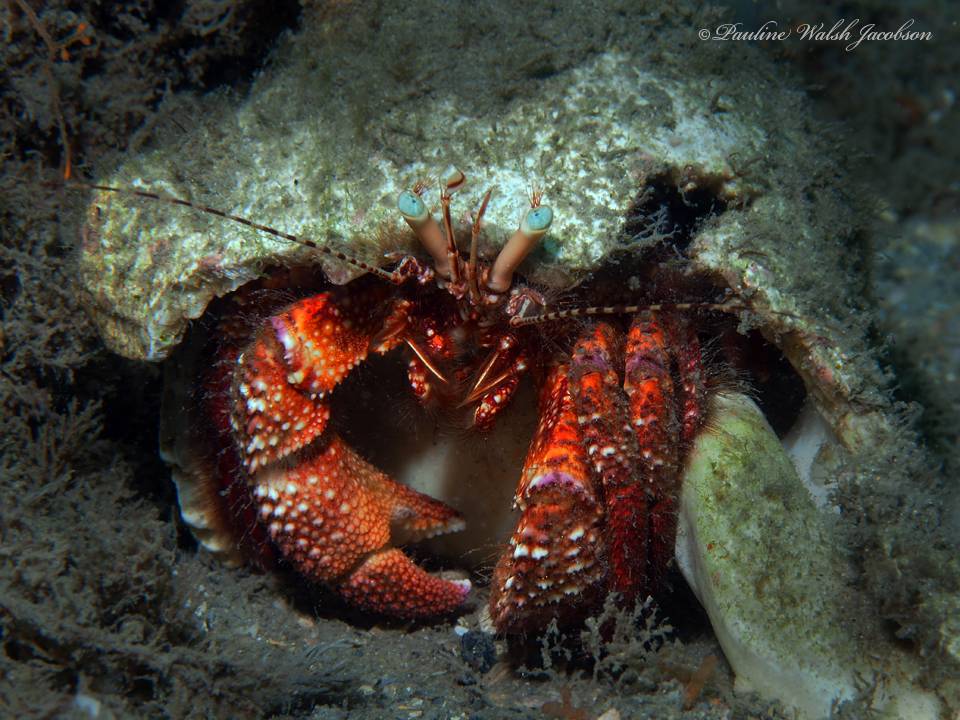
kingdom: Animalia
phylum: Arthropoda
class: Malacostraca
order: Decapoda
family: Diogenidae
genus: Petrochirus
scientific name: Petrochirus diogenes
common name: Giant hermit crab
